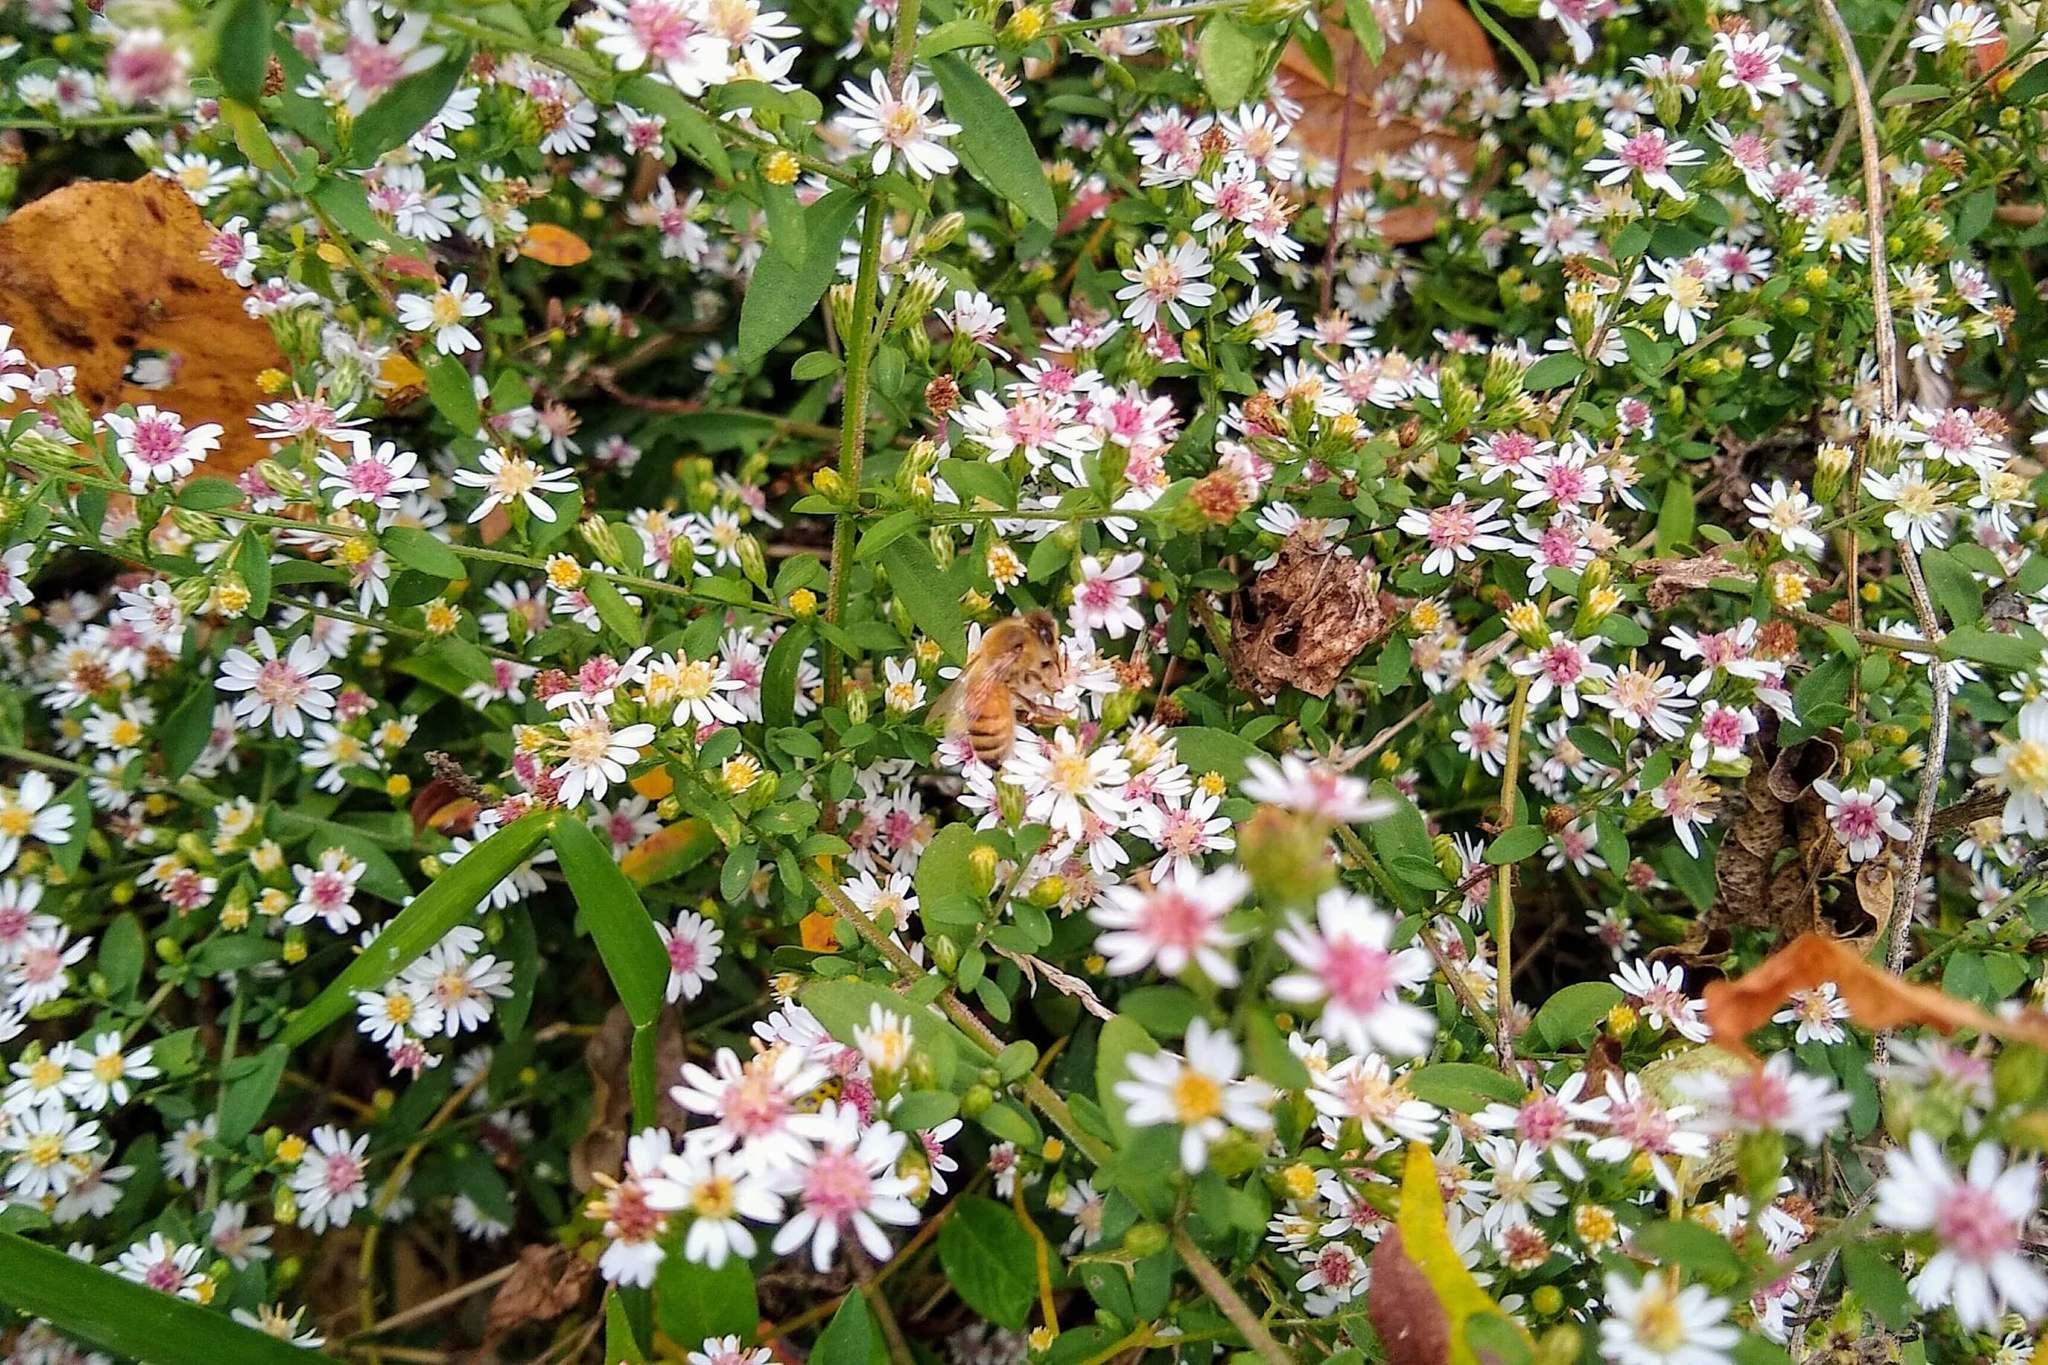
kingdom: Plantae
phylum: Tracheophyta
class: Magnoliopsida
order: Asterales
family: Asteraceae
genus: Symphyotrichum
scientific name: Symphyotrichum lateriflorum
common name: Calico aster
